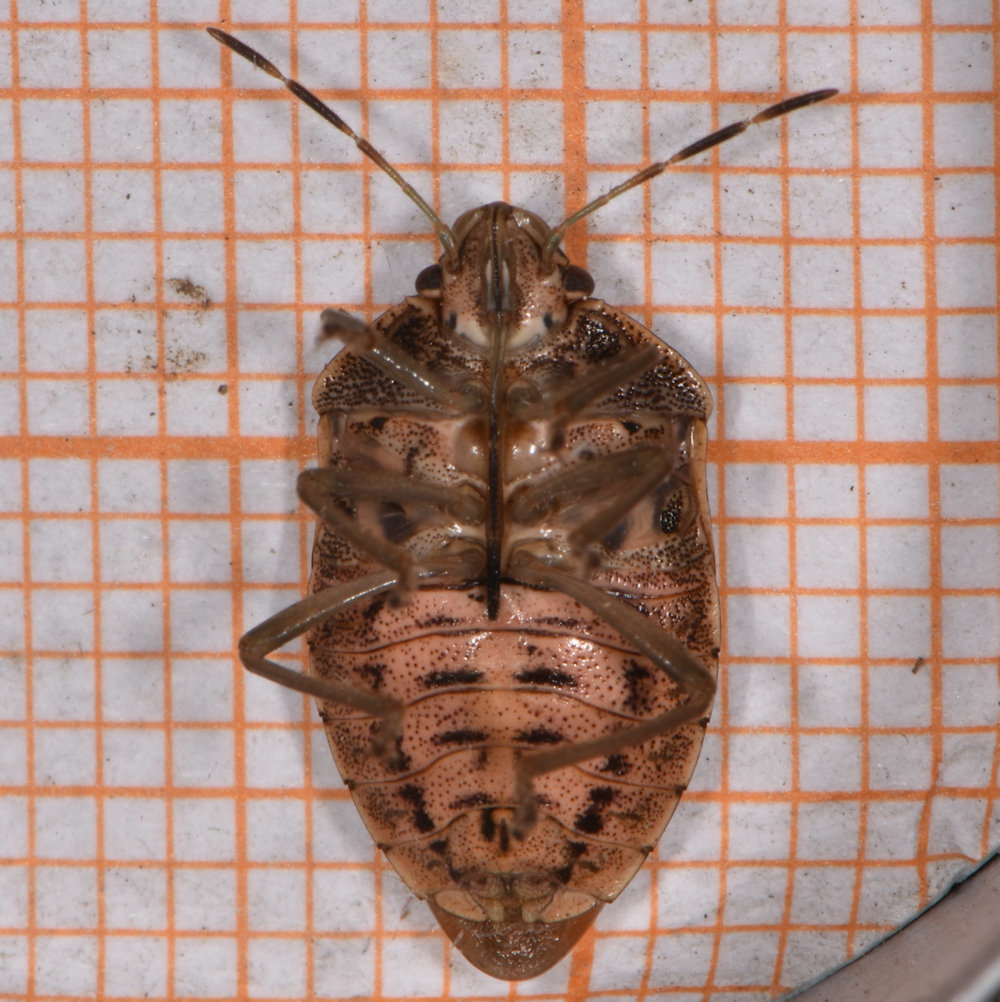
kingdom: Animalia
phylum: Arthropoda
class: Insecta
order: Hemiptera
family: Pentatomidae
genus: Banasa
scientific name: Banasa sordida
